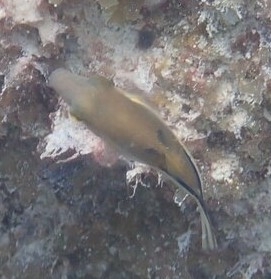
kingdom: Animalia
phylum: Chordata
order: Tetraodontiformes
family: Tetraodontidae
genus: Canthigaster
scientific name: Canthigaster rostrata
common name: Caribbean sharpnose-puffer
